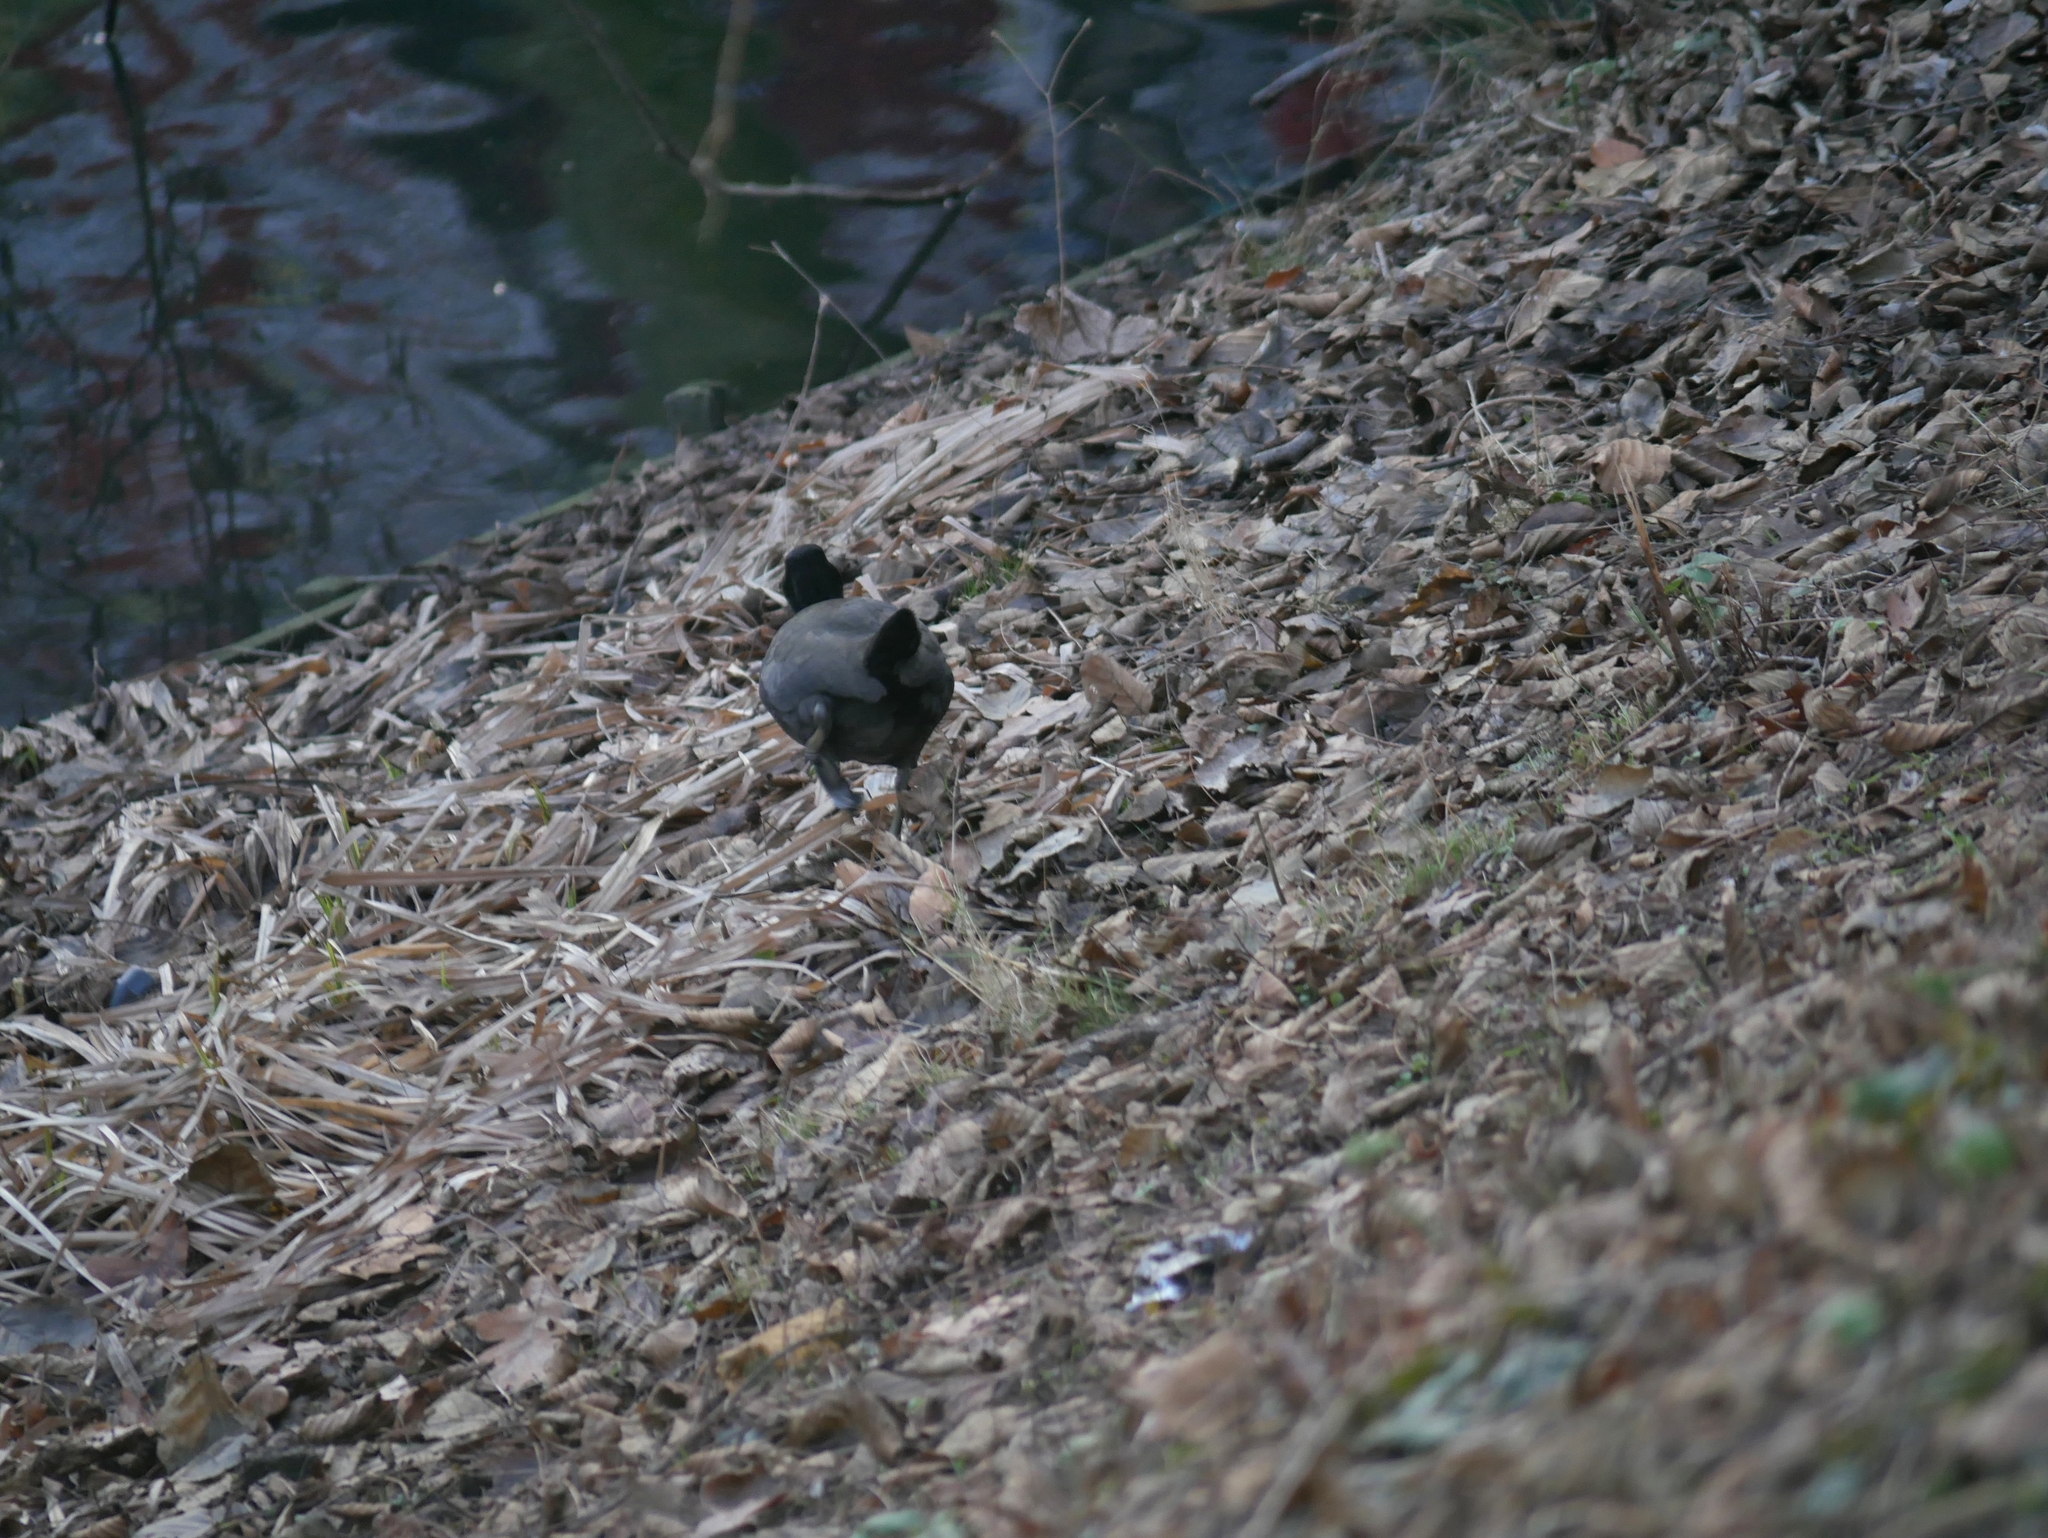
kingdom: Animalia
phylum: Chordata
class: Aves
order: Gruiformes
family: Rallidae
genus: Fulica
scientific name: Fulica atra
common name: Eurasian coot
